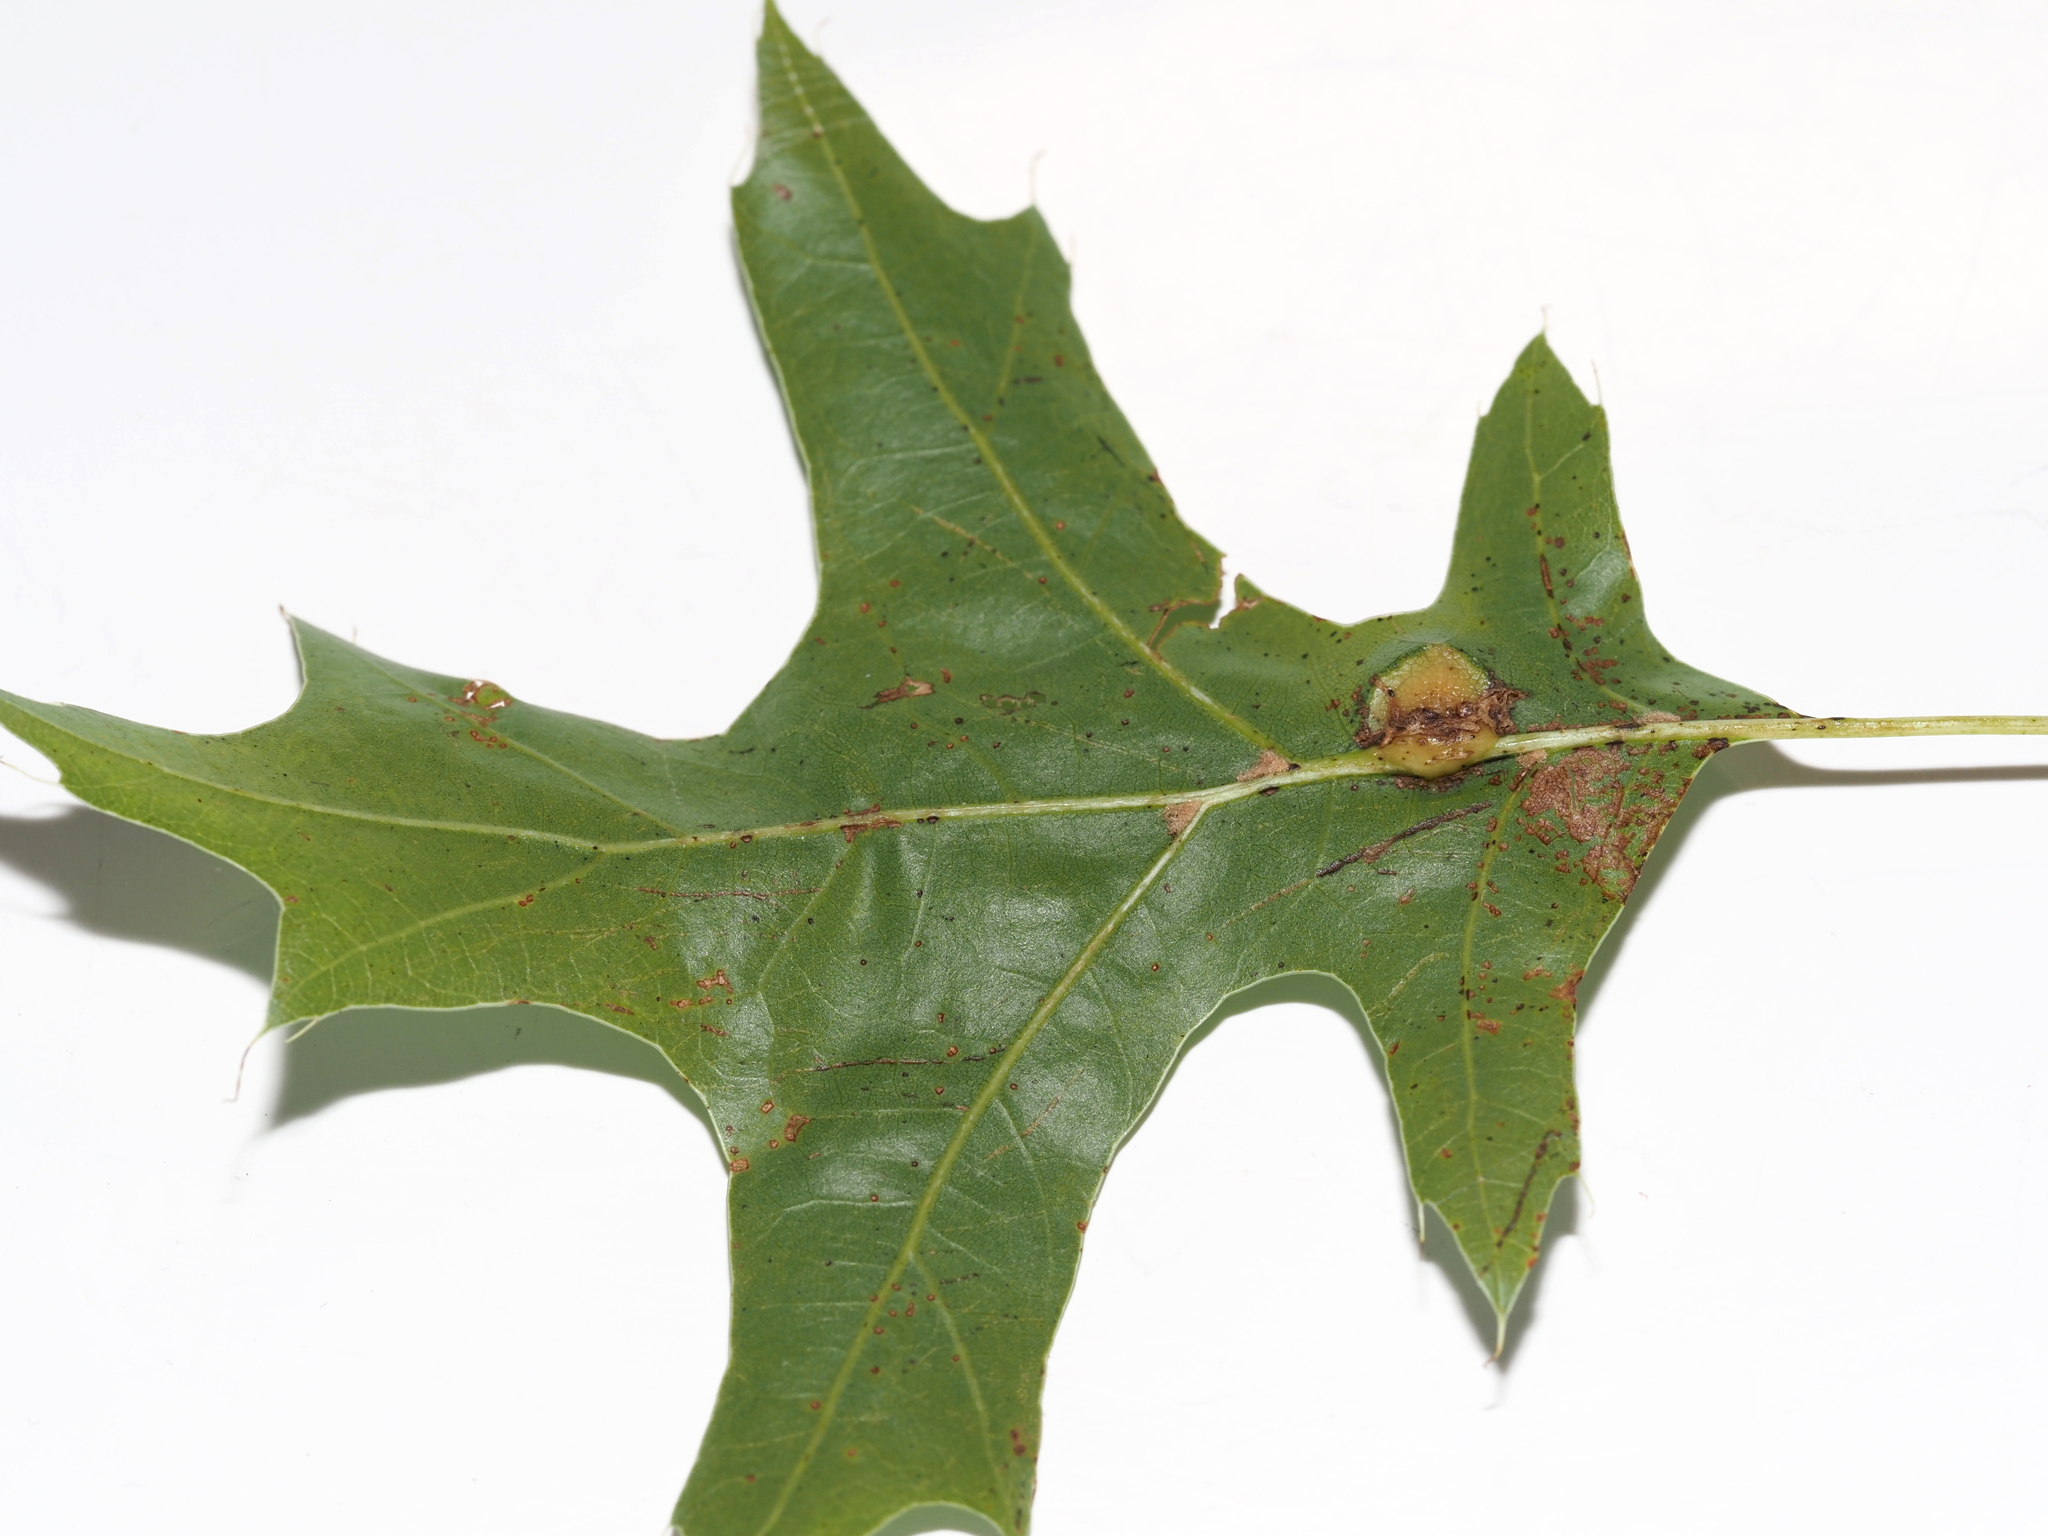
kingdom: Animalia
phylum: Arthropoda
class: Insecta
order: Diptera
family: Cecidomyiidae
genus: Polystepha
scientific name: Polystepha pilulae
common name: Oak leaf gall midge
